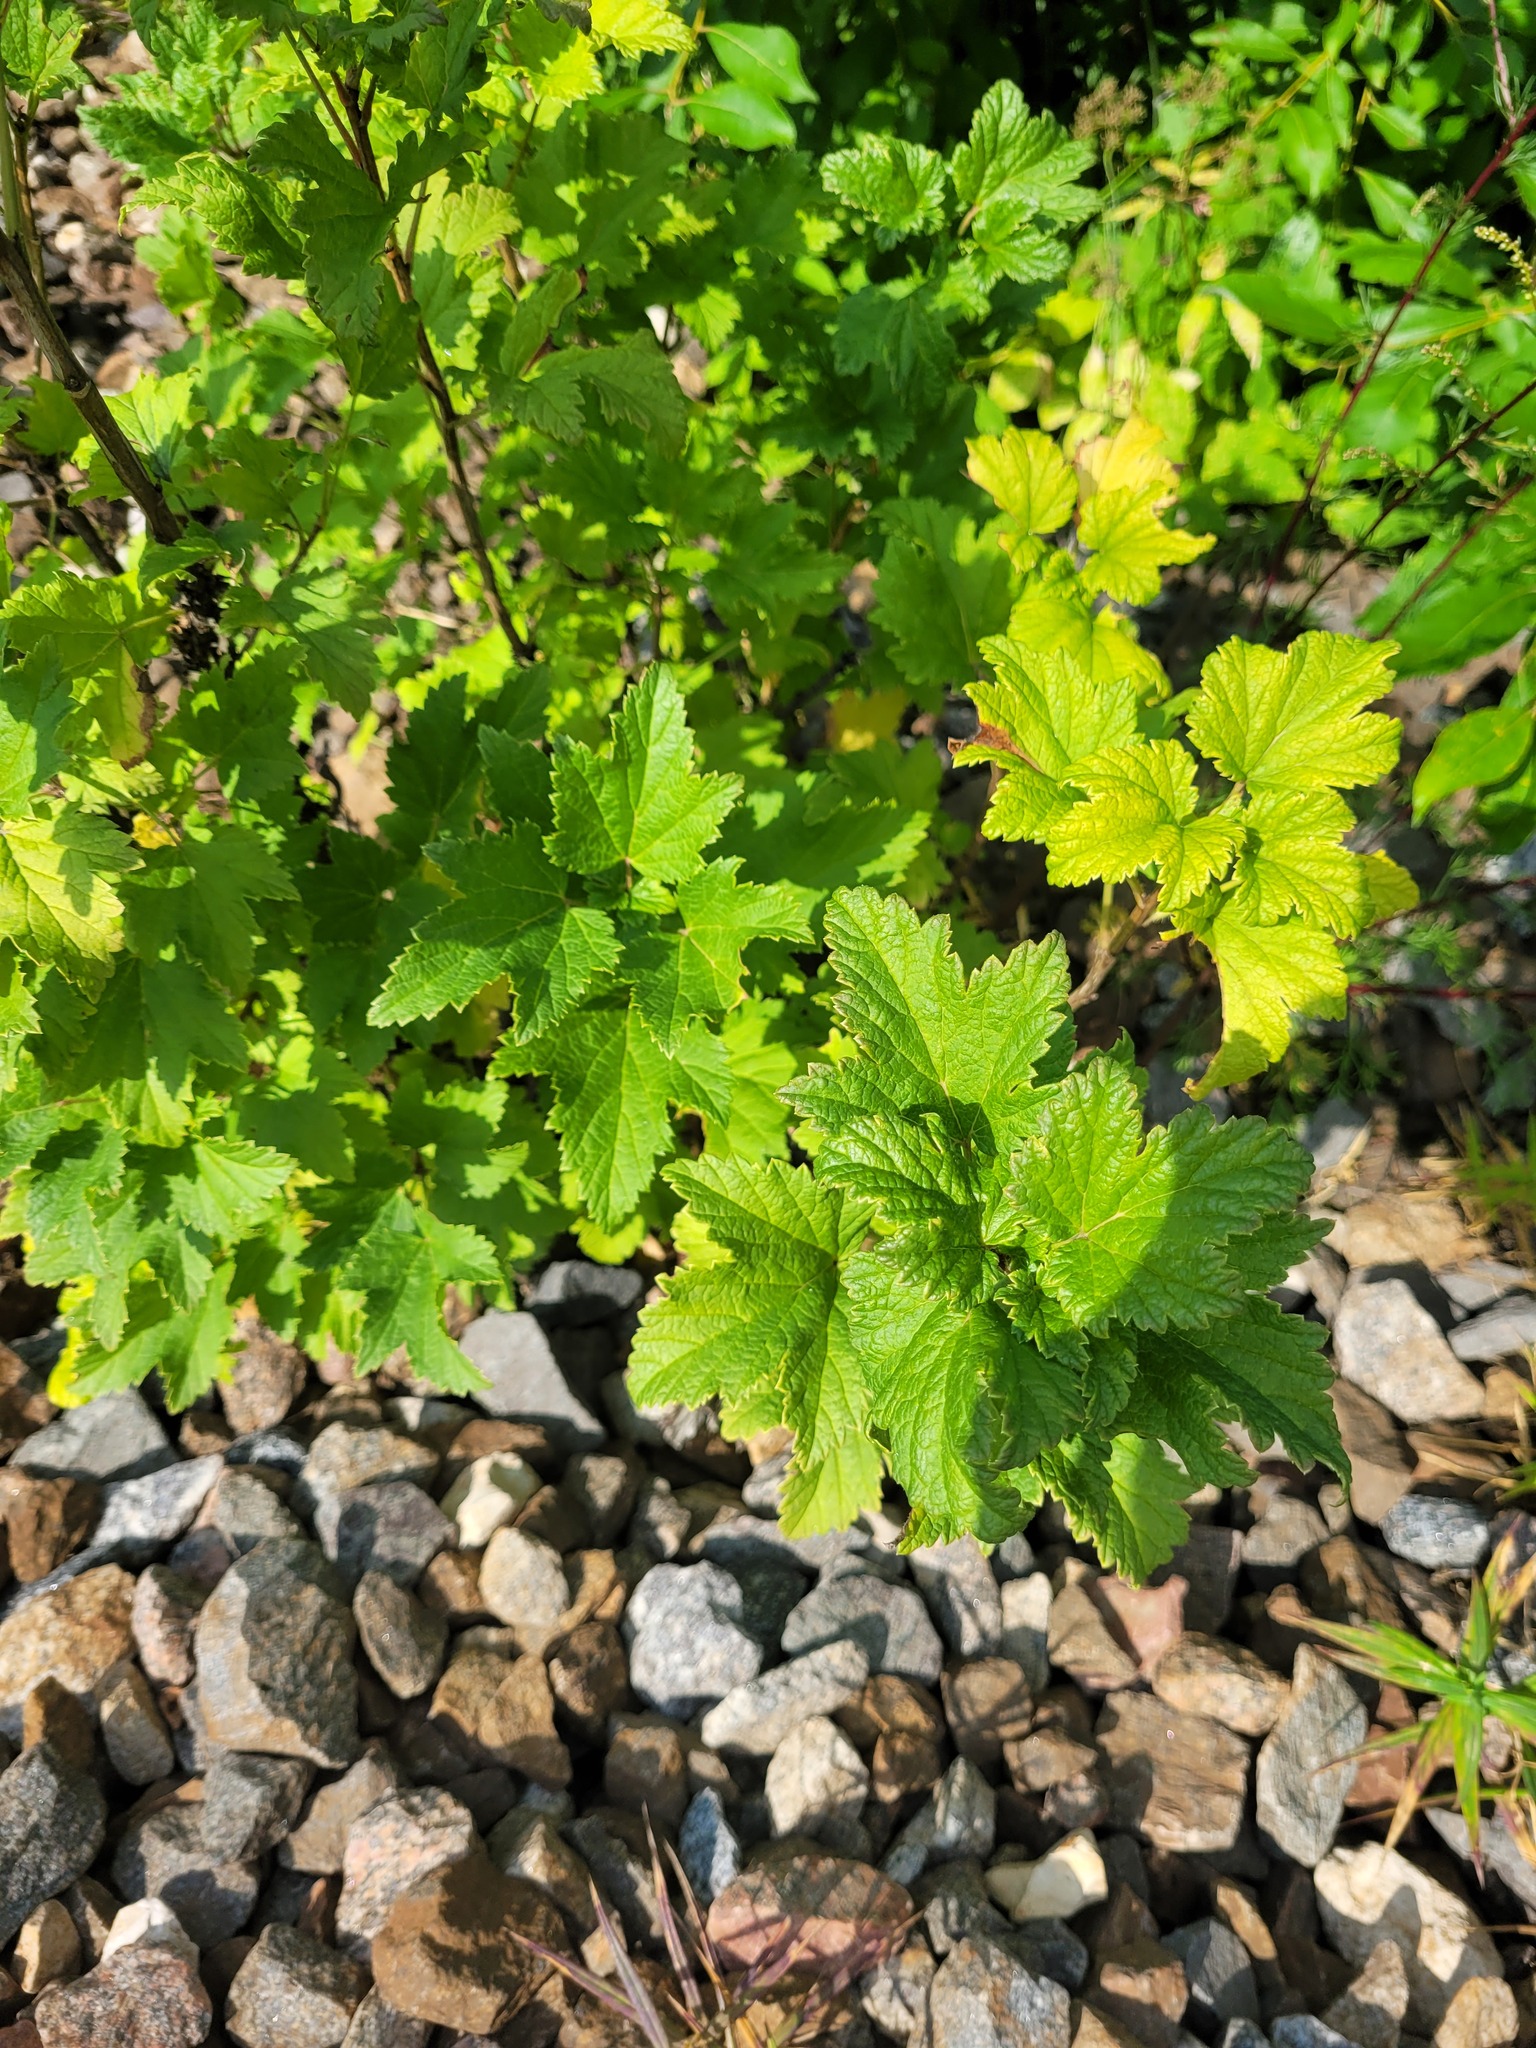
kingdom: Plantae
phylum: Tracheophyta
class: Magnoliopsida
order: Saxifragales
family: Grossulariaceae
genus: Ribes
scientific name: Ribes rubrum
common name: Red currant
